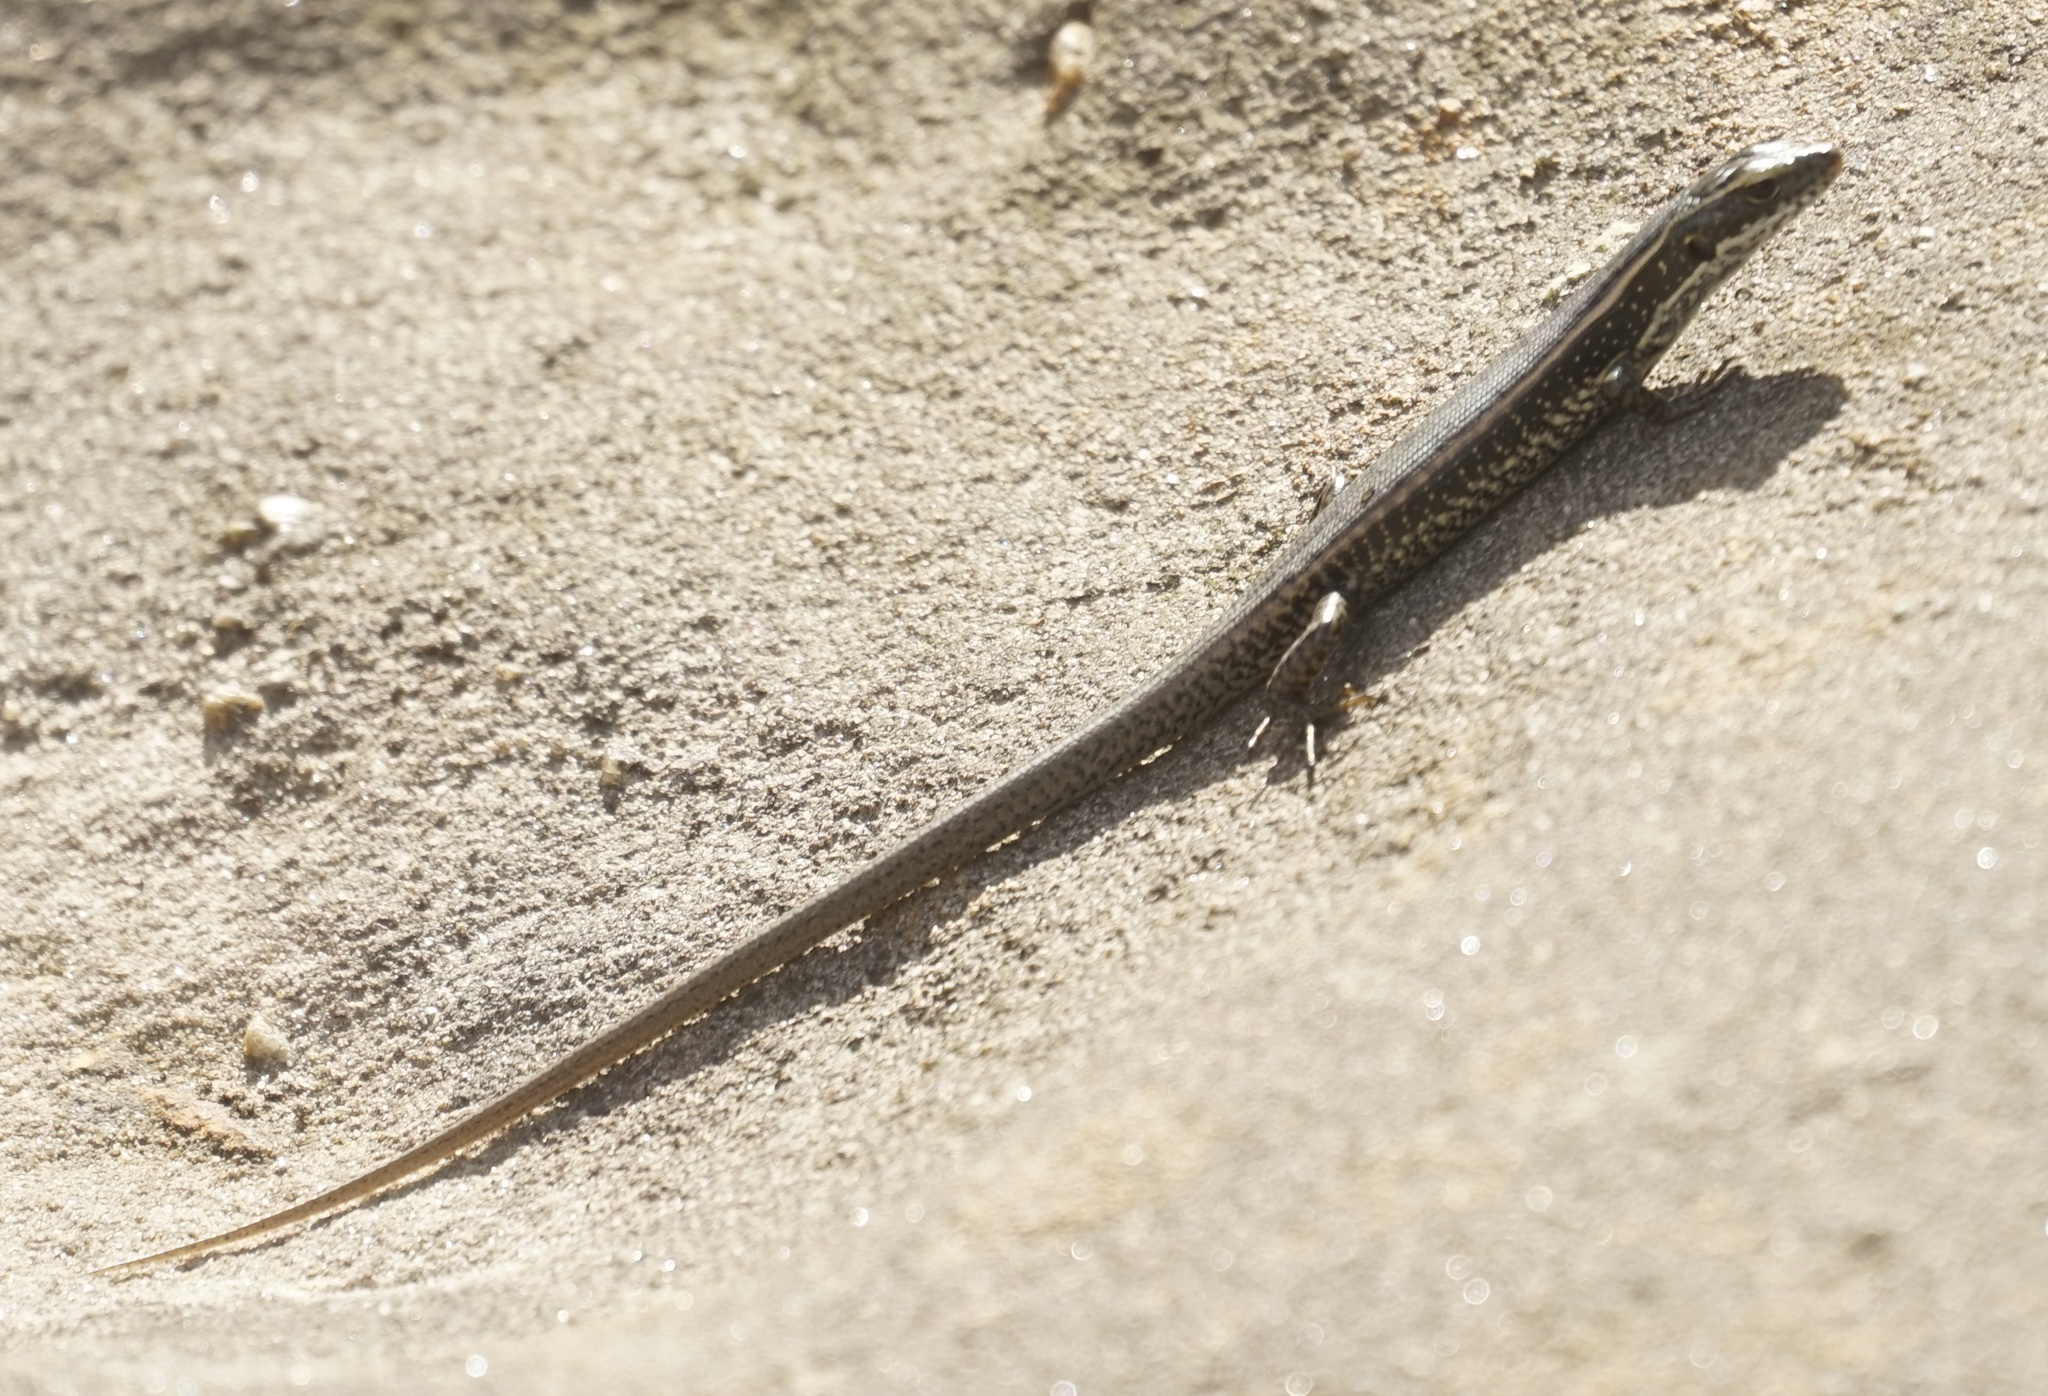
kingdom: Animalia
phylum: Chordata
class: Squamata
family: Scincidae
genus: Eulamprus
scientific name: Eulamprus quoyii
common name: Eastern water skink
